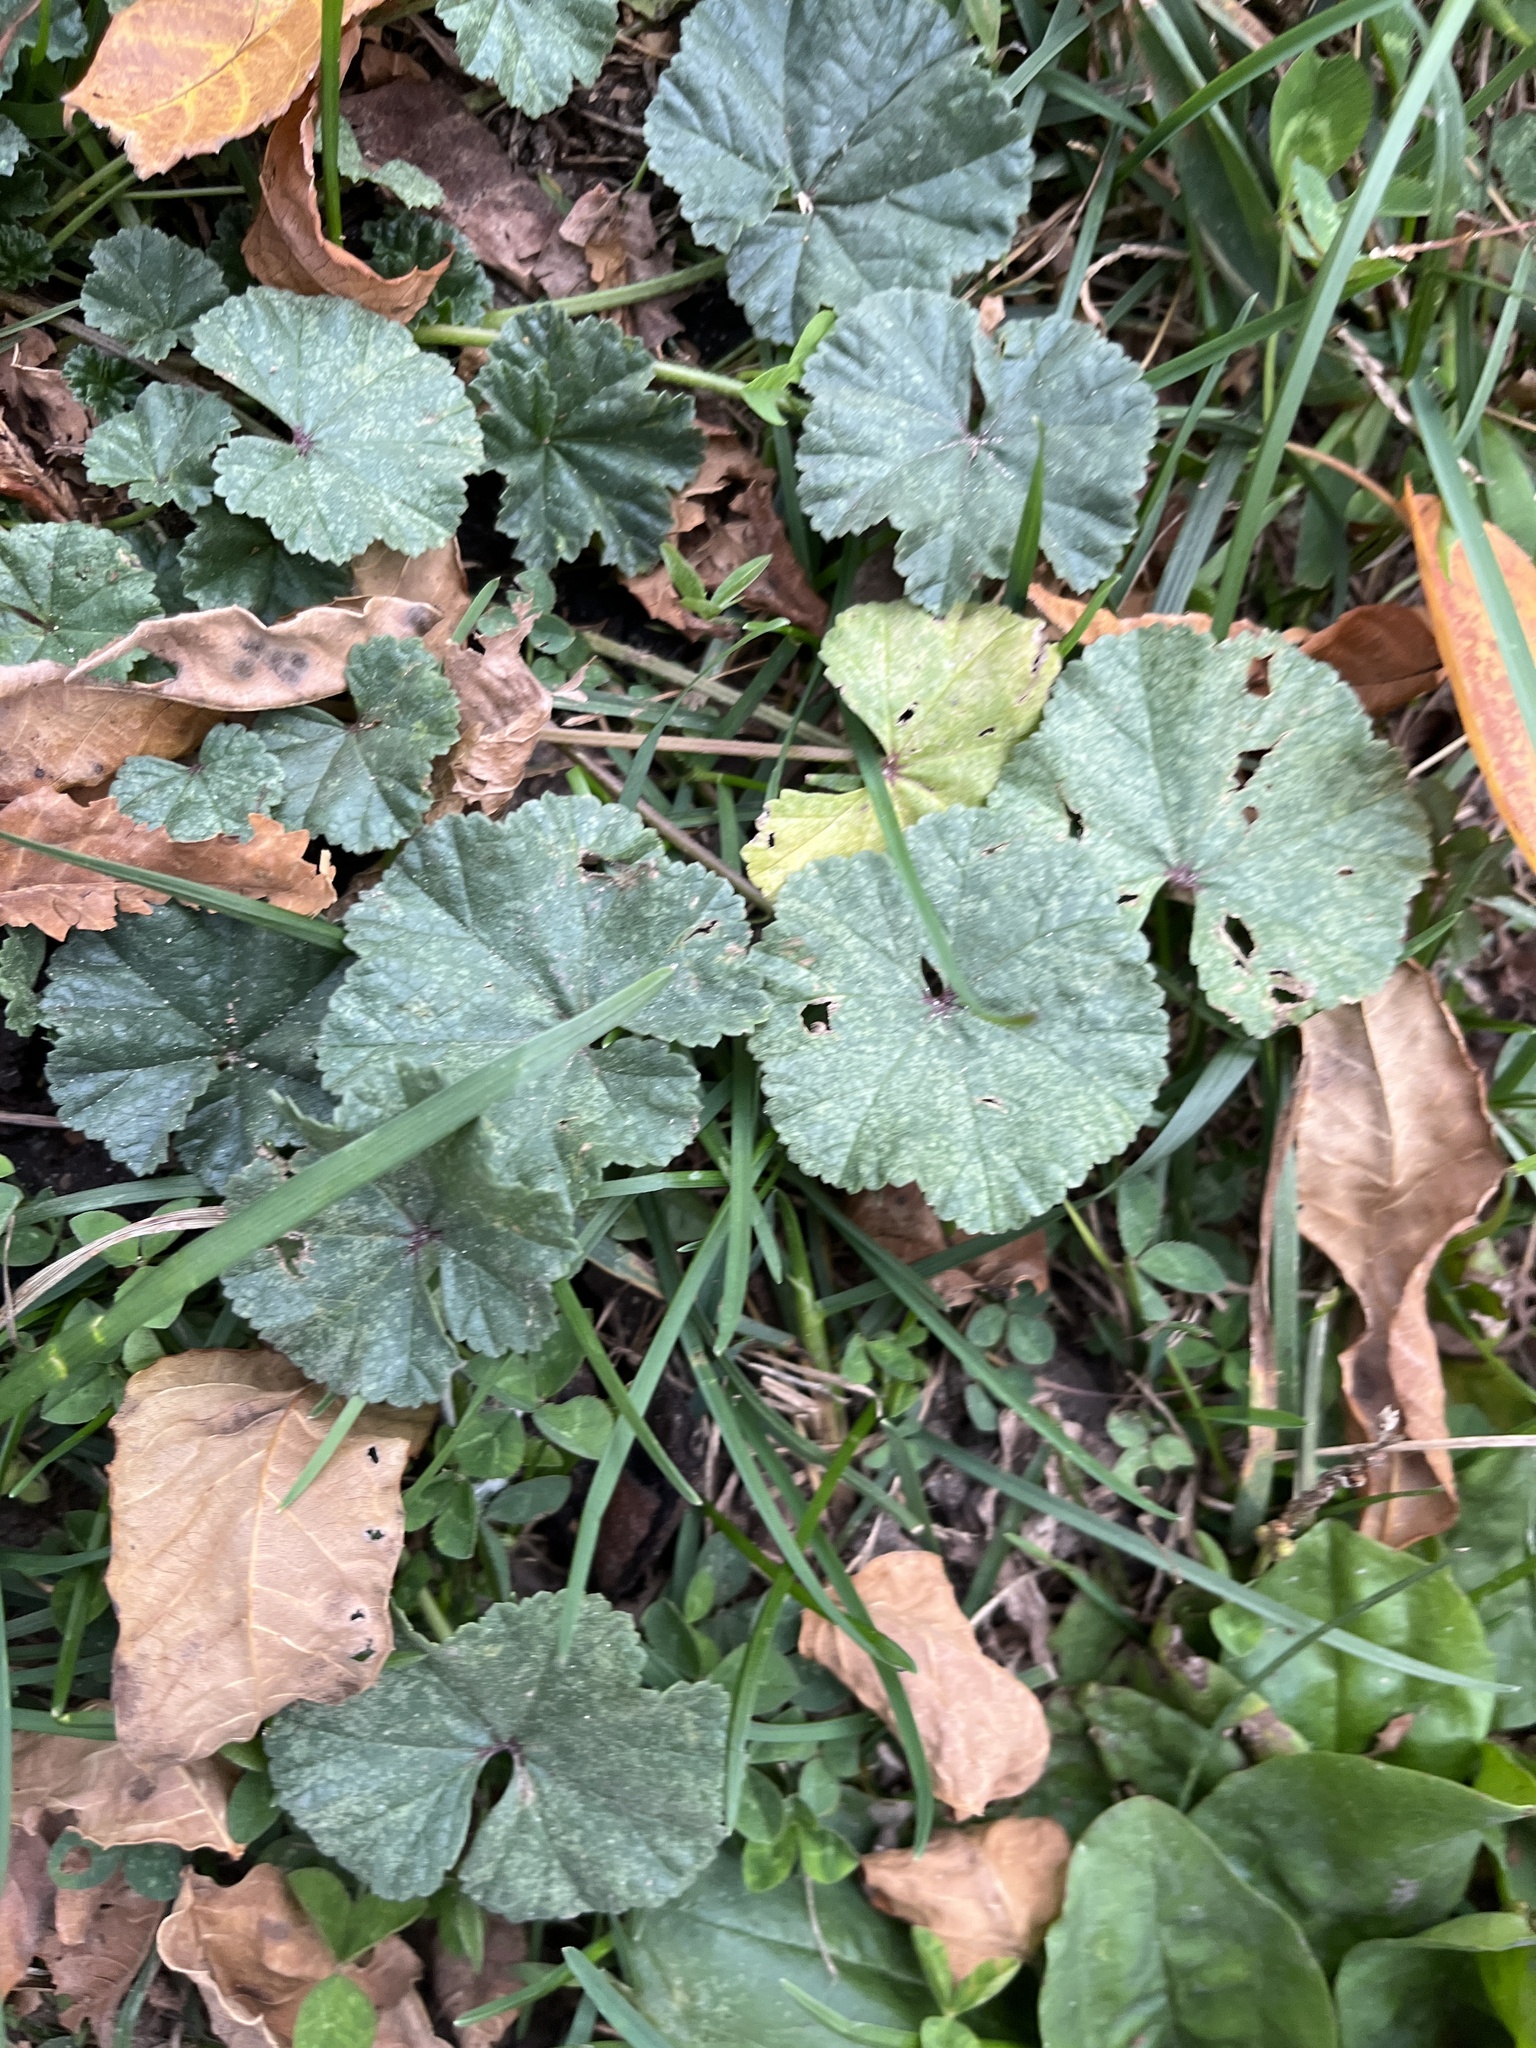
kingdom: Plantae
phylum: Tracheophyta
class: Magnoliopsida
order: Malvales
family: Malvaceae
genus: Malva
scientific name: Malva
